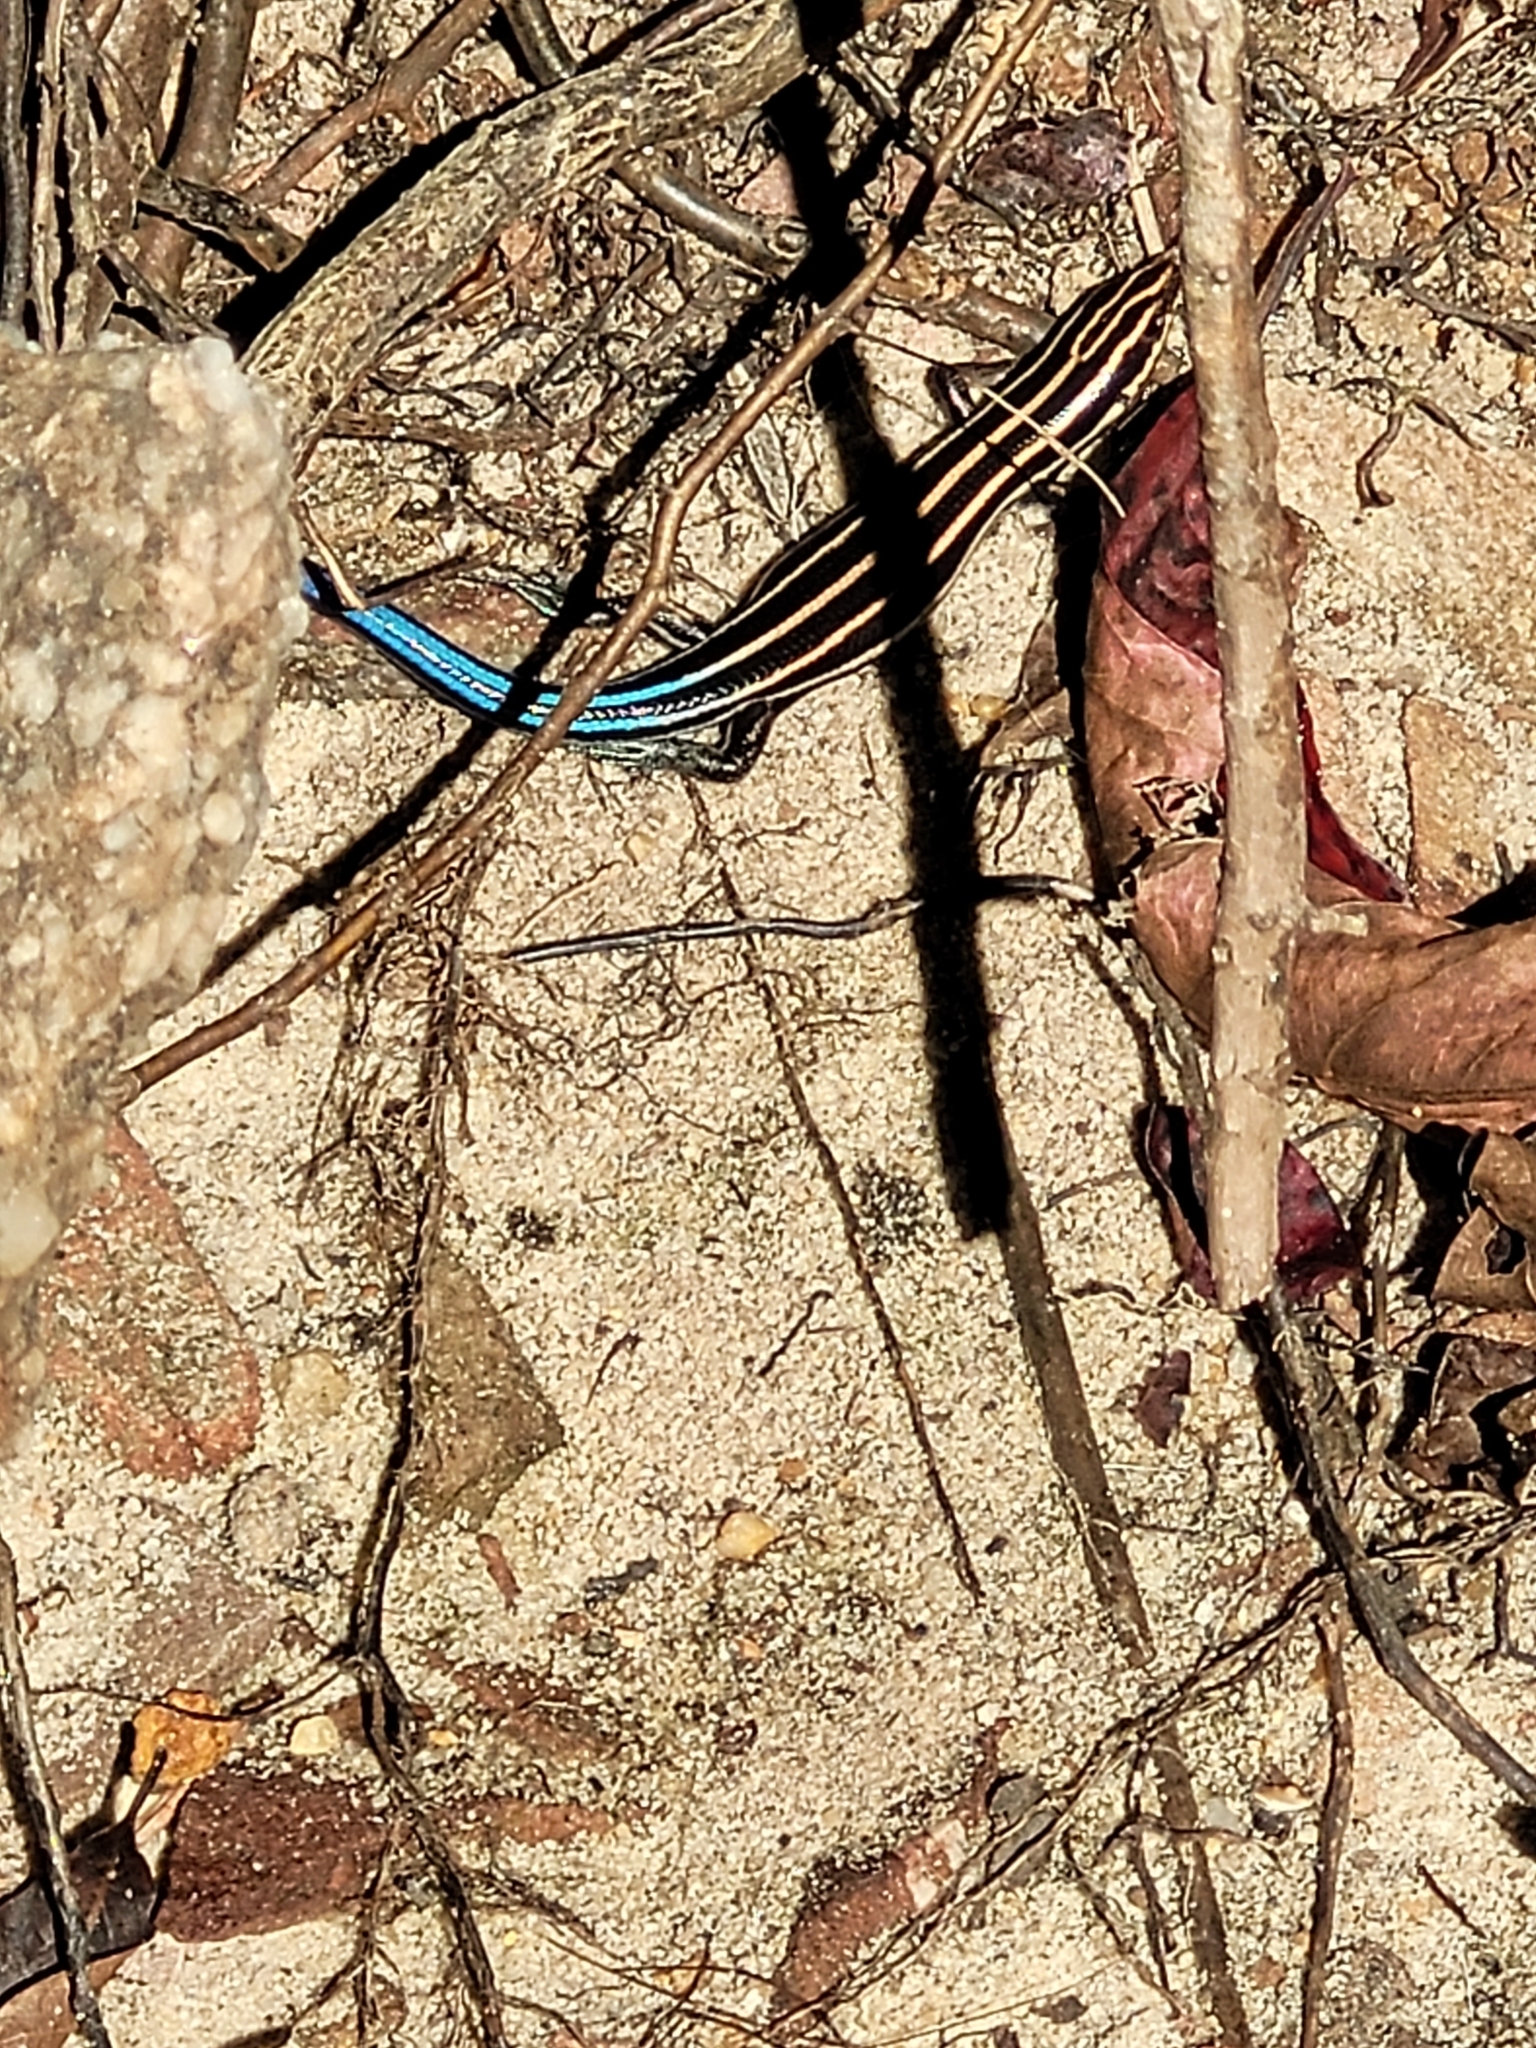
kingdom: Animalia
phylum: Chordata
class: Squamata
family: Scincidae
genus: Plestiodon
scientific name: Plestiodon fasciatus
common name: Five-lined skink
